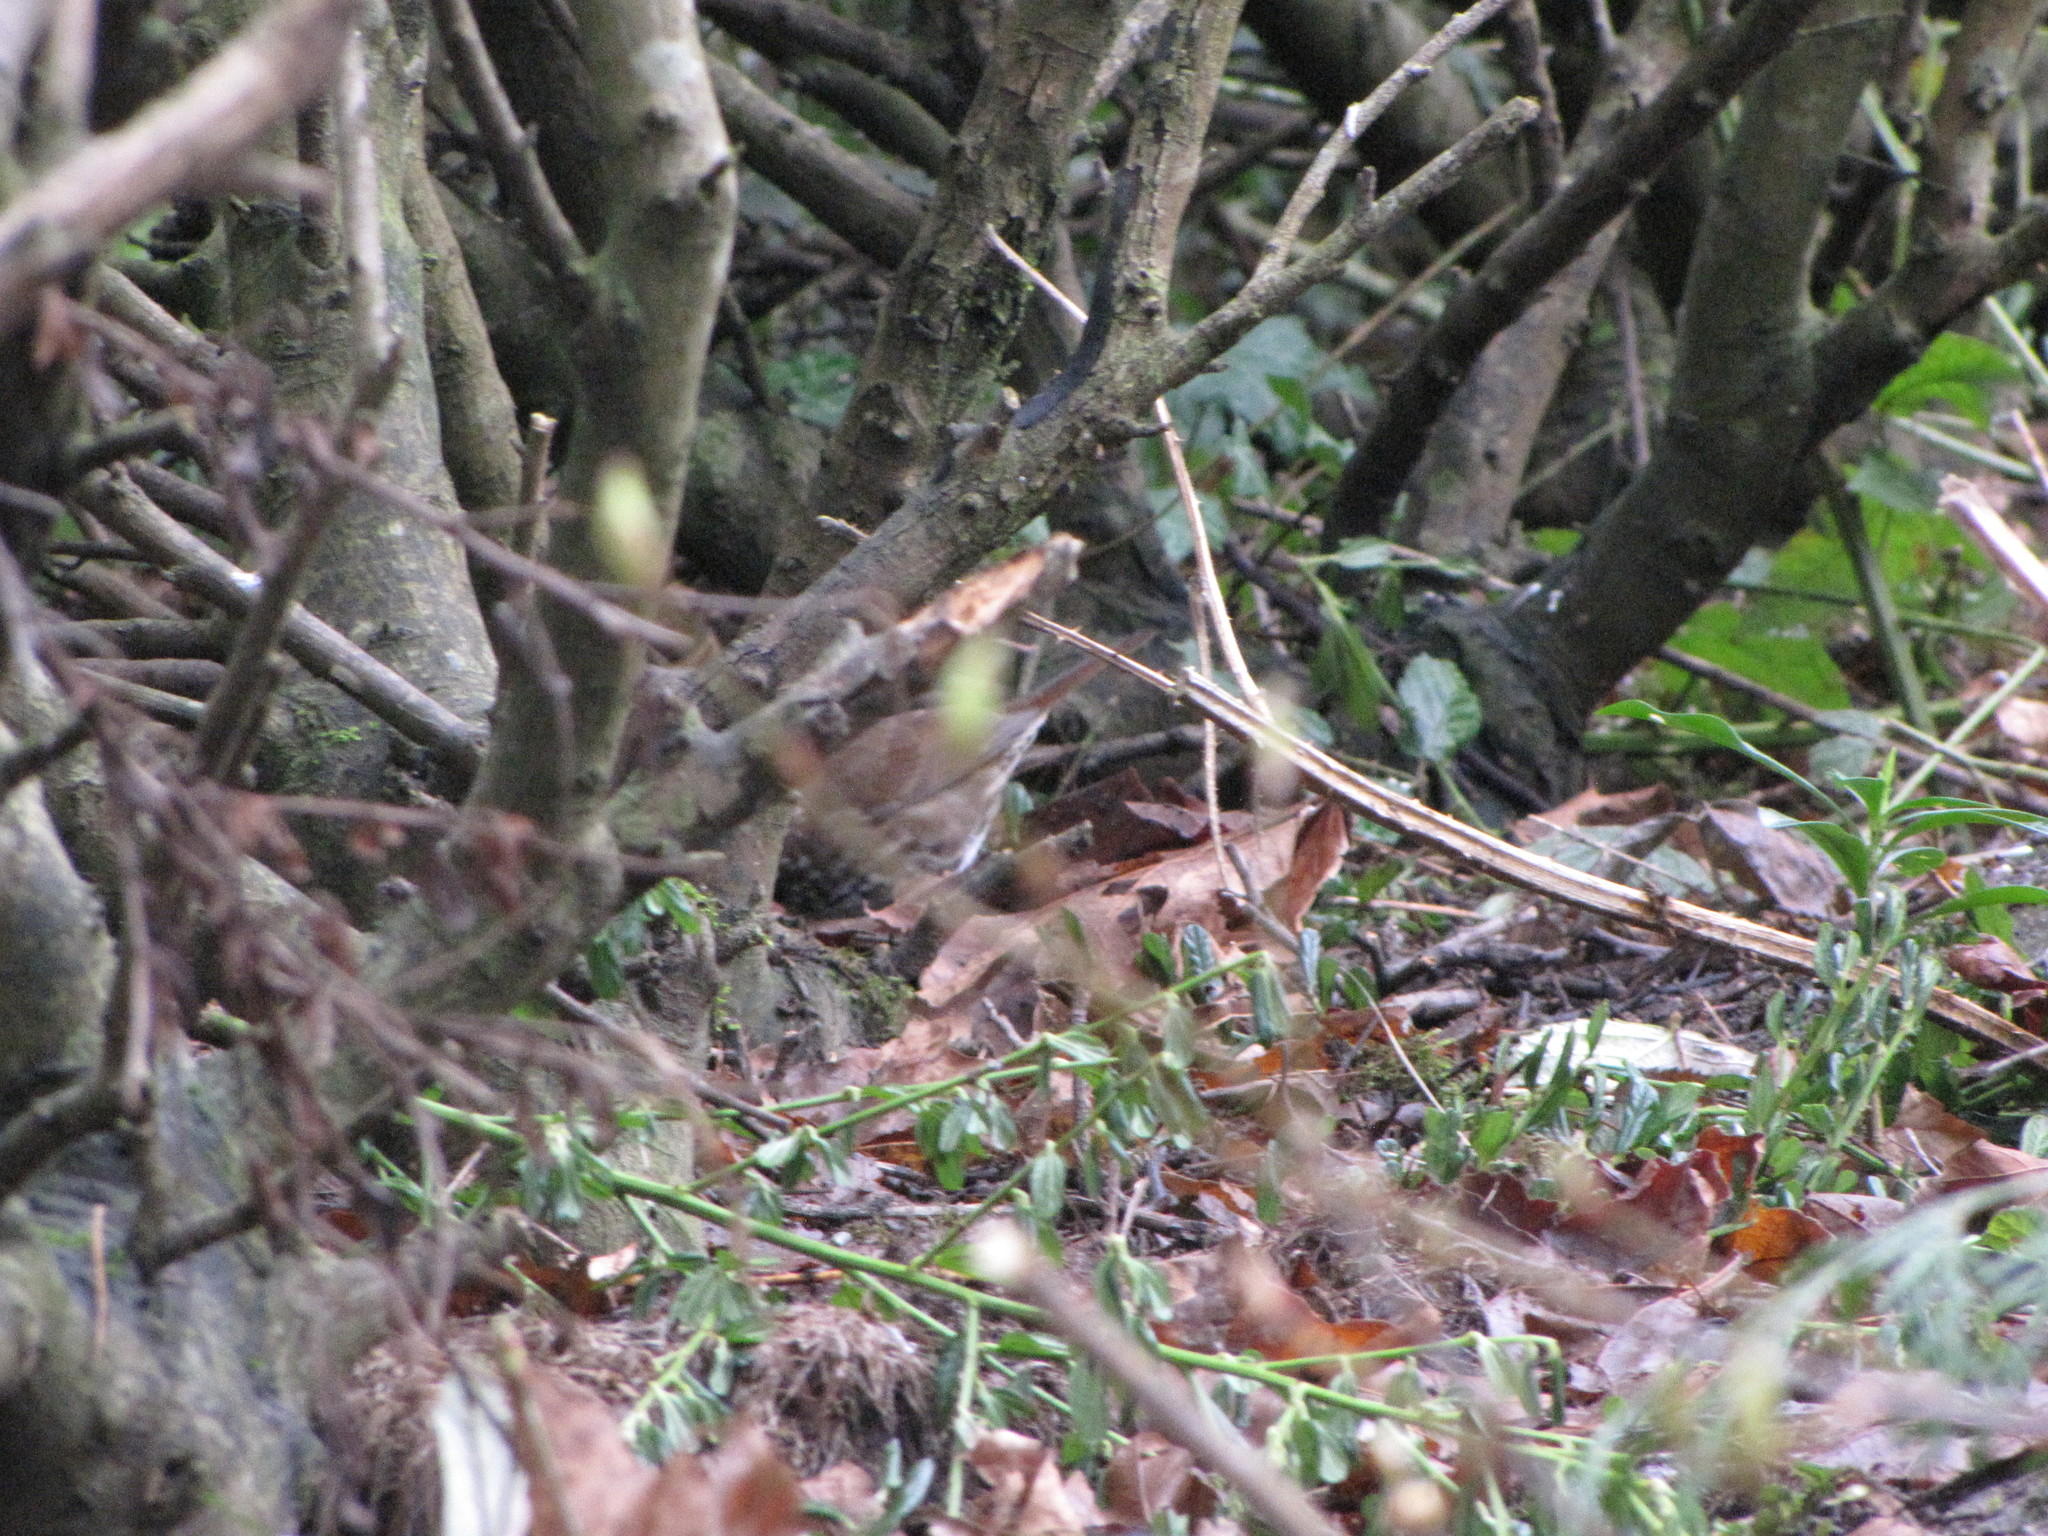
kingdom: Animalia
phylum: Chordata
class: Aves
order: Passeriformes
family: Passerellidae
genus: Passerella
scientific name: Passerella iliaca
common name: Fox sparrow
